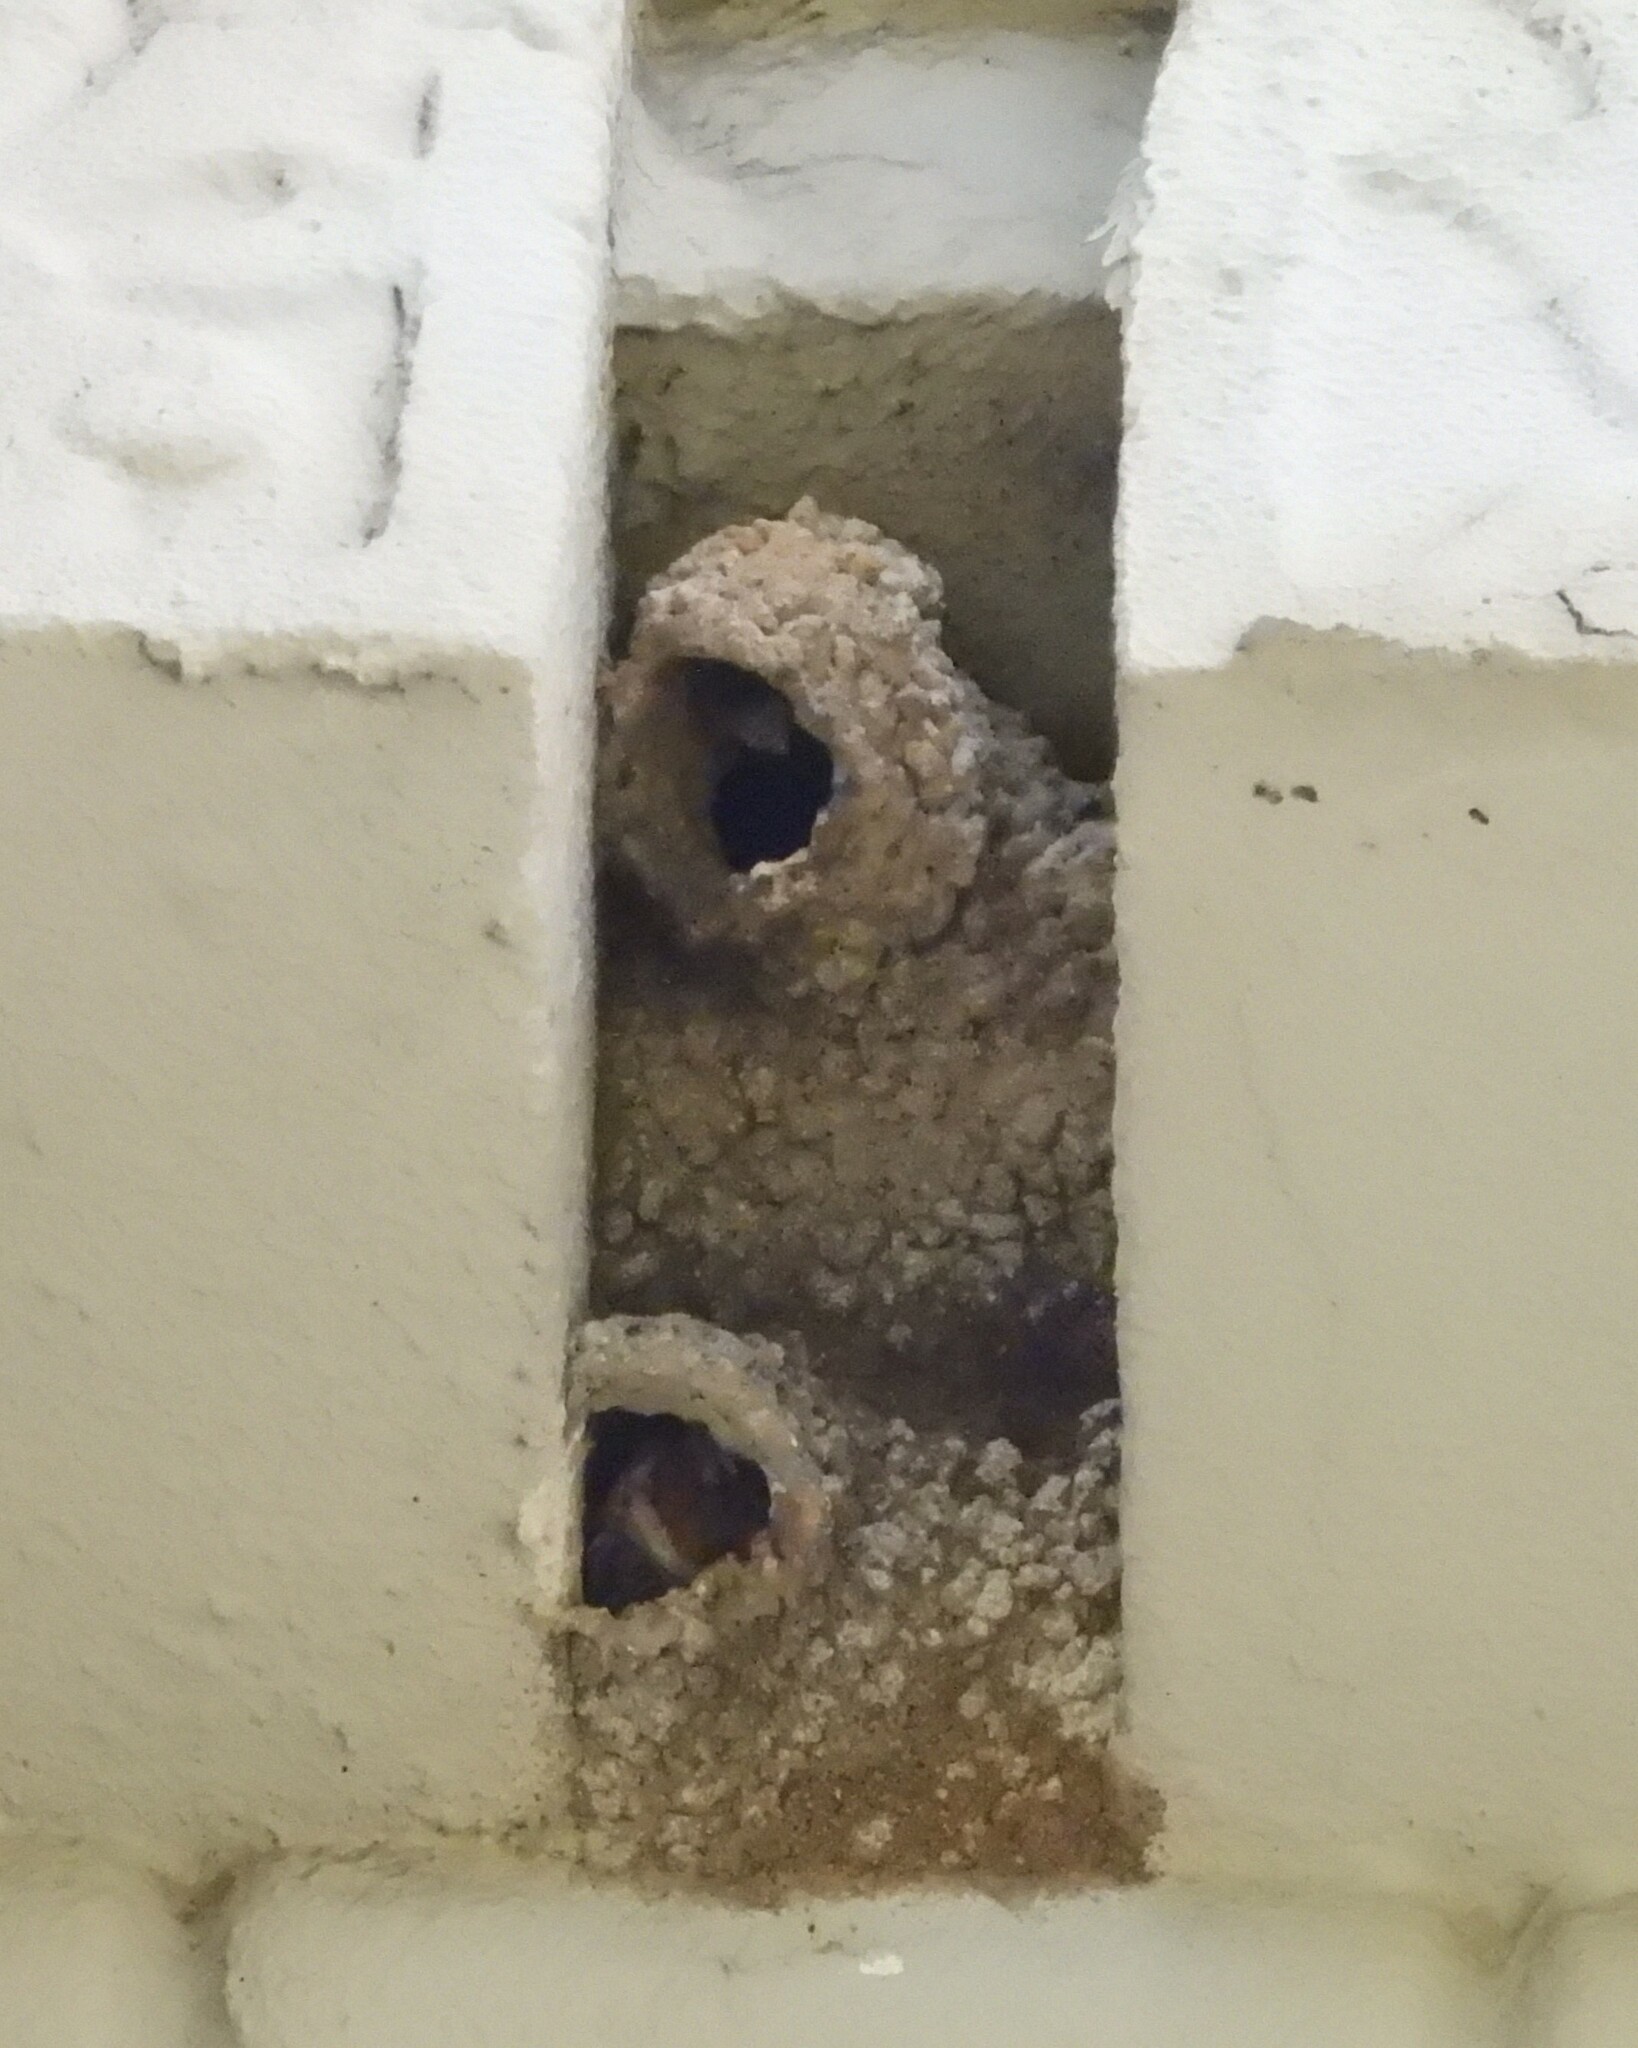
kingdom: Animalia
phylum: Chordata
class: Aves
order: Passeriformes
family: Hirundinidae
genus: Petrochelidon
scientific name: Petrochelidon pyrrhonota
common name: American cliff swallow
